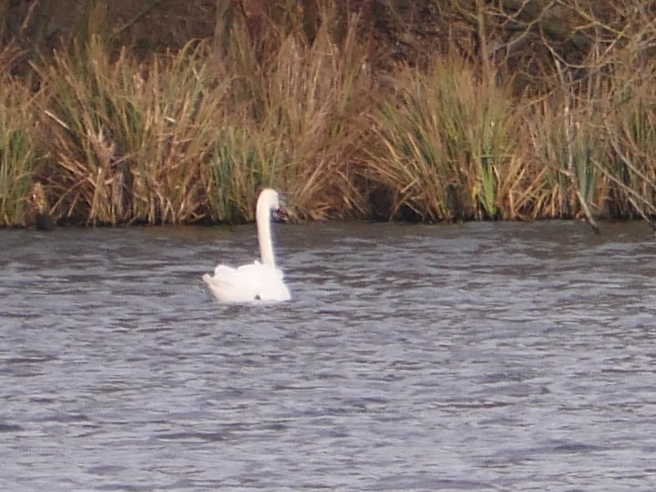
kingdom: Animalia
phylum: Chordata
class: Aves
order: Anseriformes
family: Anatidae
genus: Cygnus
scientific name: Cygnus olor
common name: Mute swan
